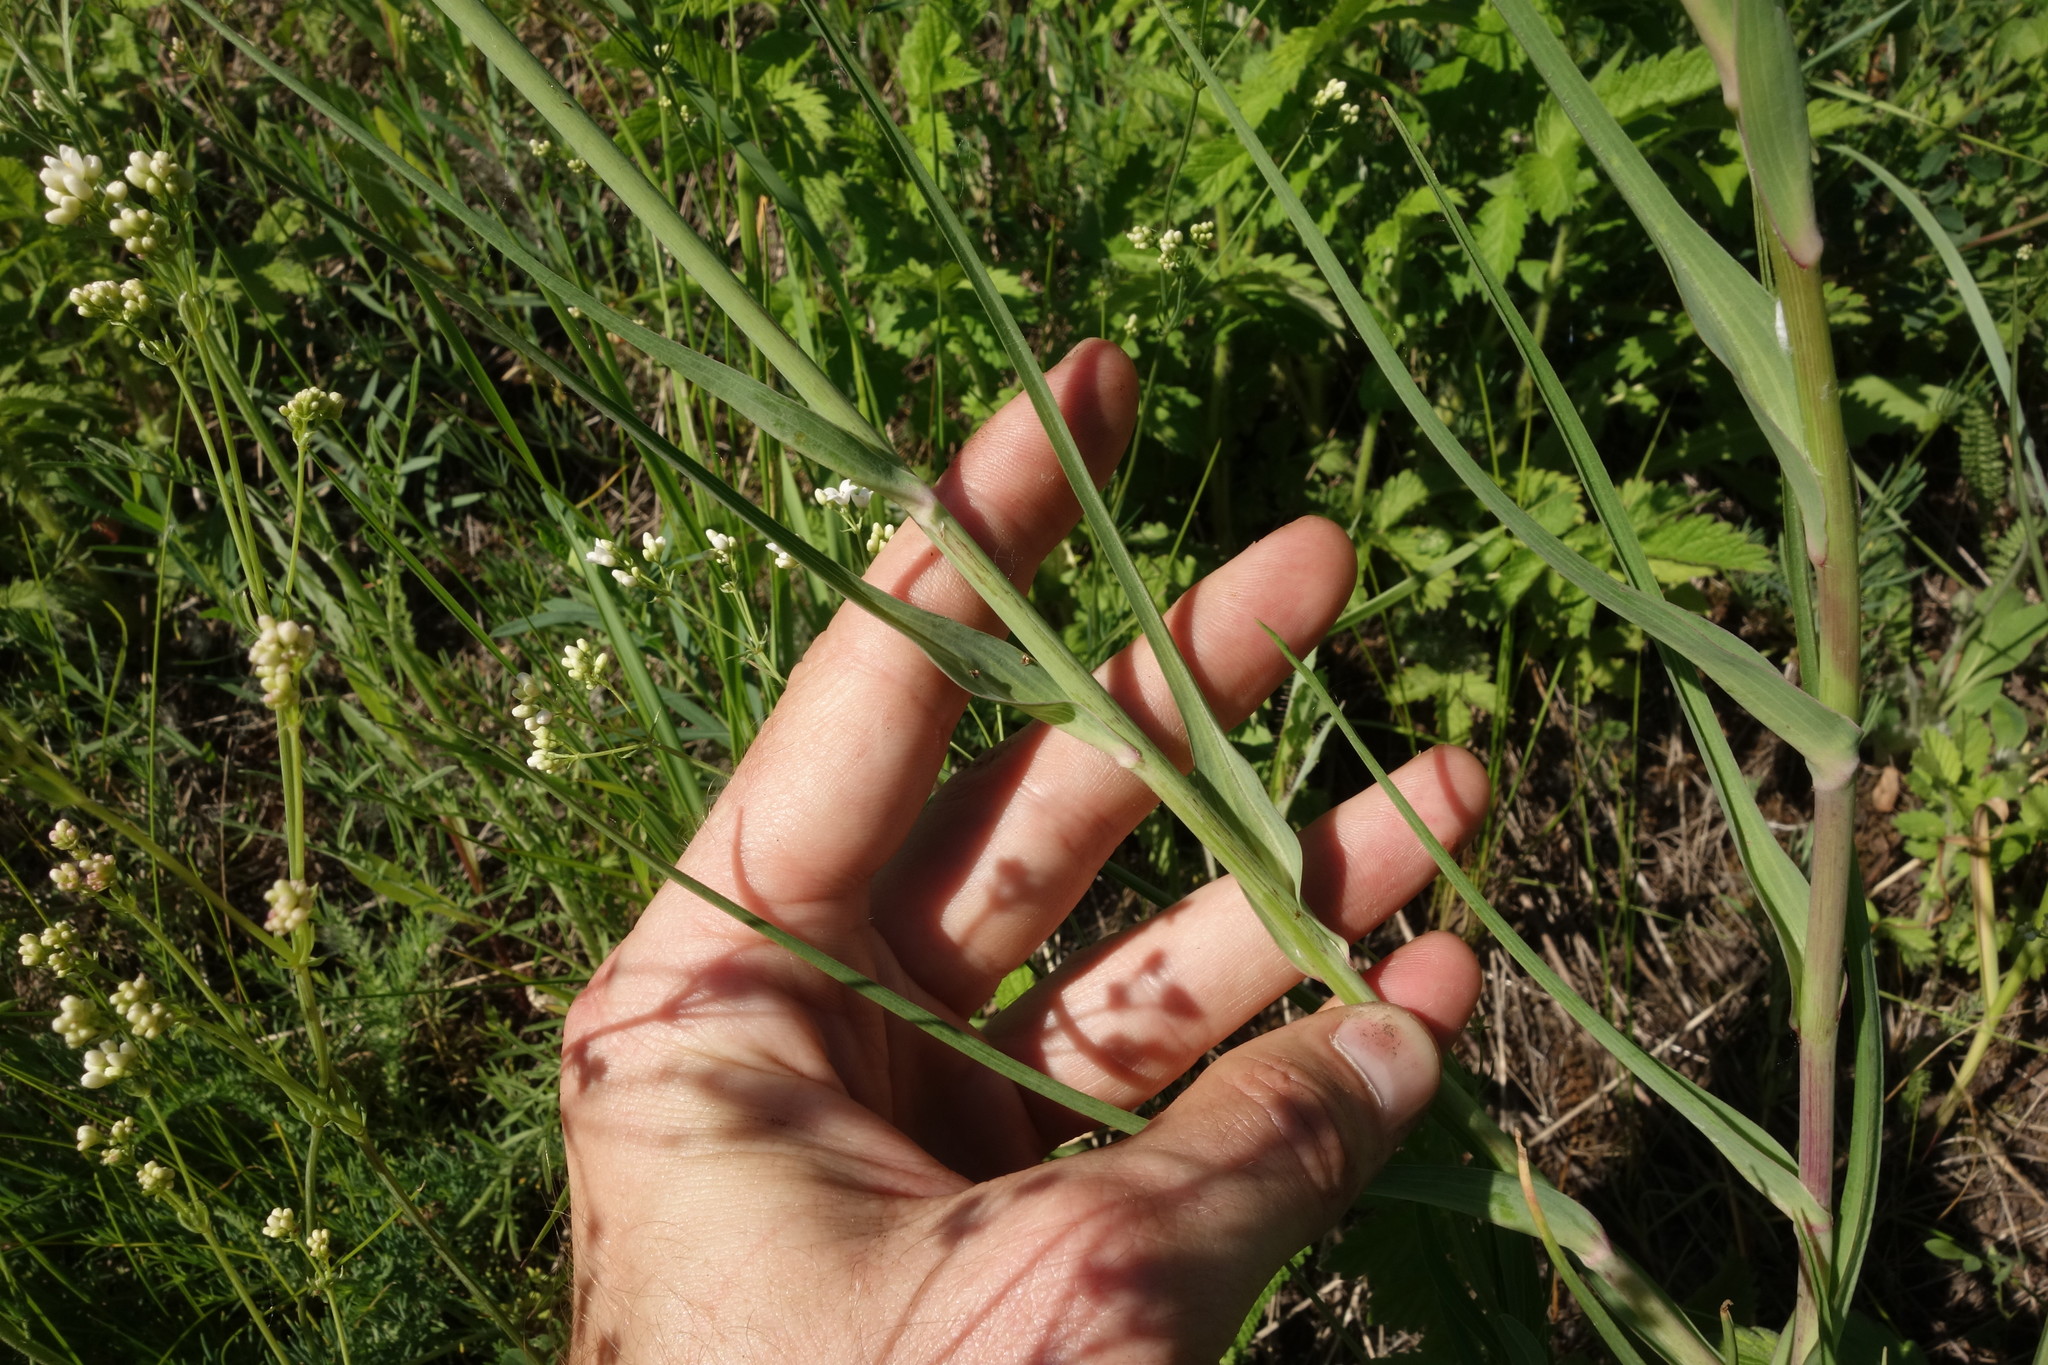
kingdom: Plantae
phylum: Tracheophyta
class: Magnoliopsida
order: Asterales
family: Asteraceae
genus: Tragopogon
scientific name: Tragopogon dubius
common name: Yellow salsify
